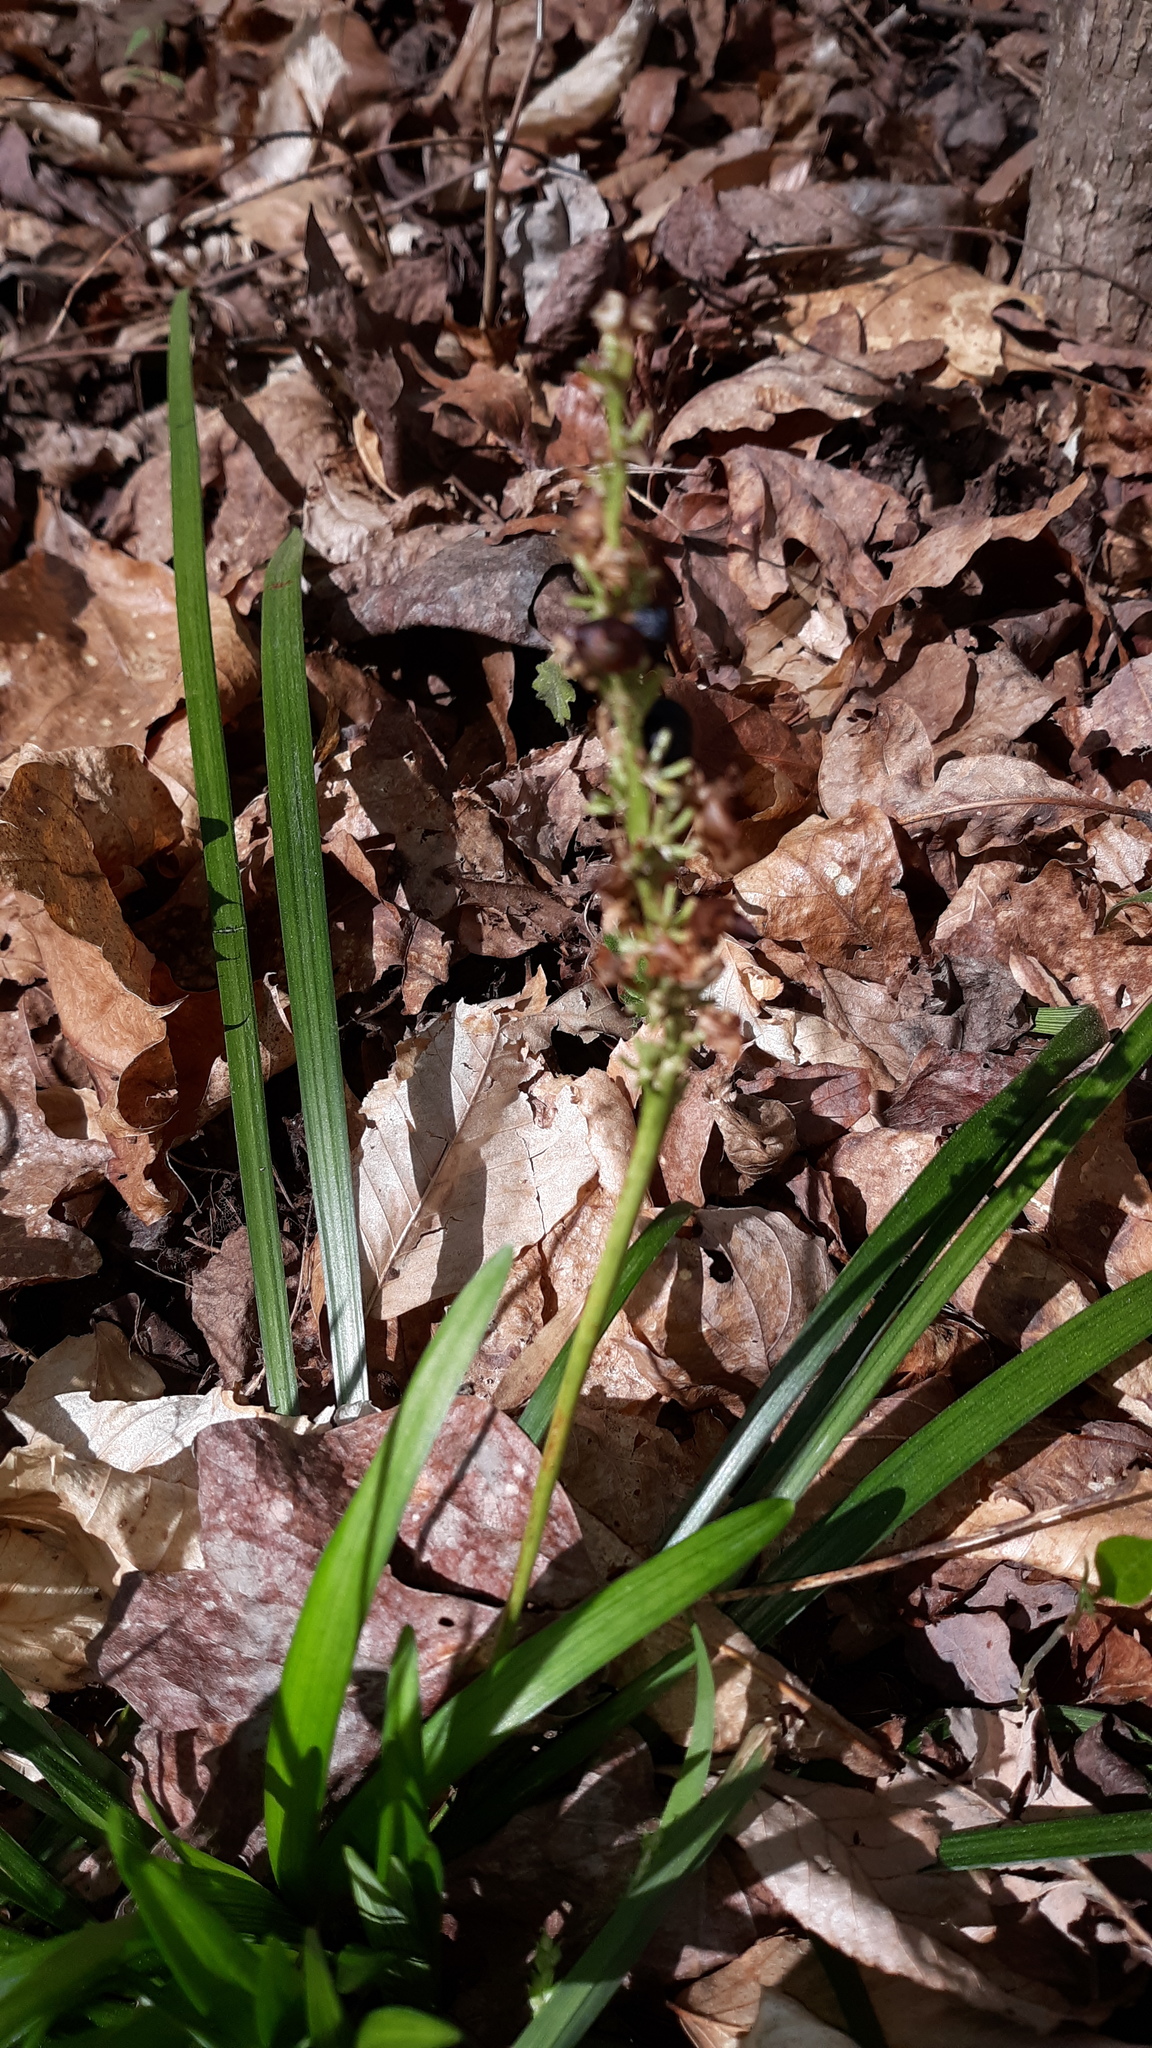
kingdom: Plantae
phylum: Tracheophyta
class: Liliopsida
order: Asparagales
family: Asparagaceae
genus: Liriope
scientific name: Liriope muscari
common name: Big blue lilyturf
